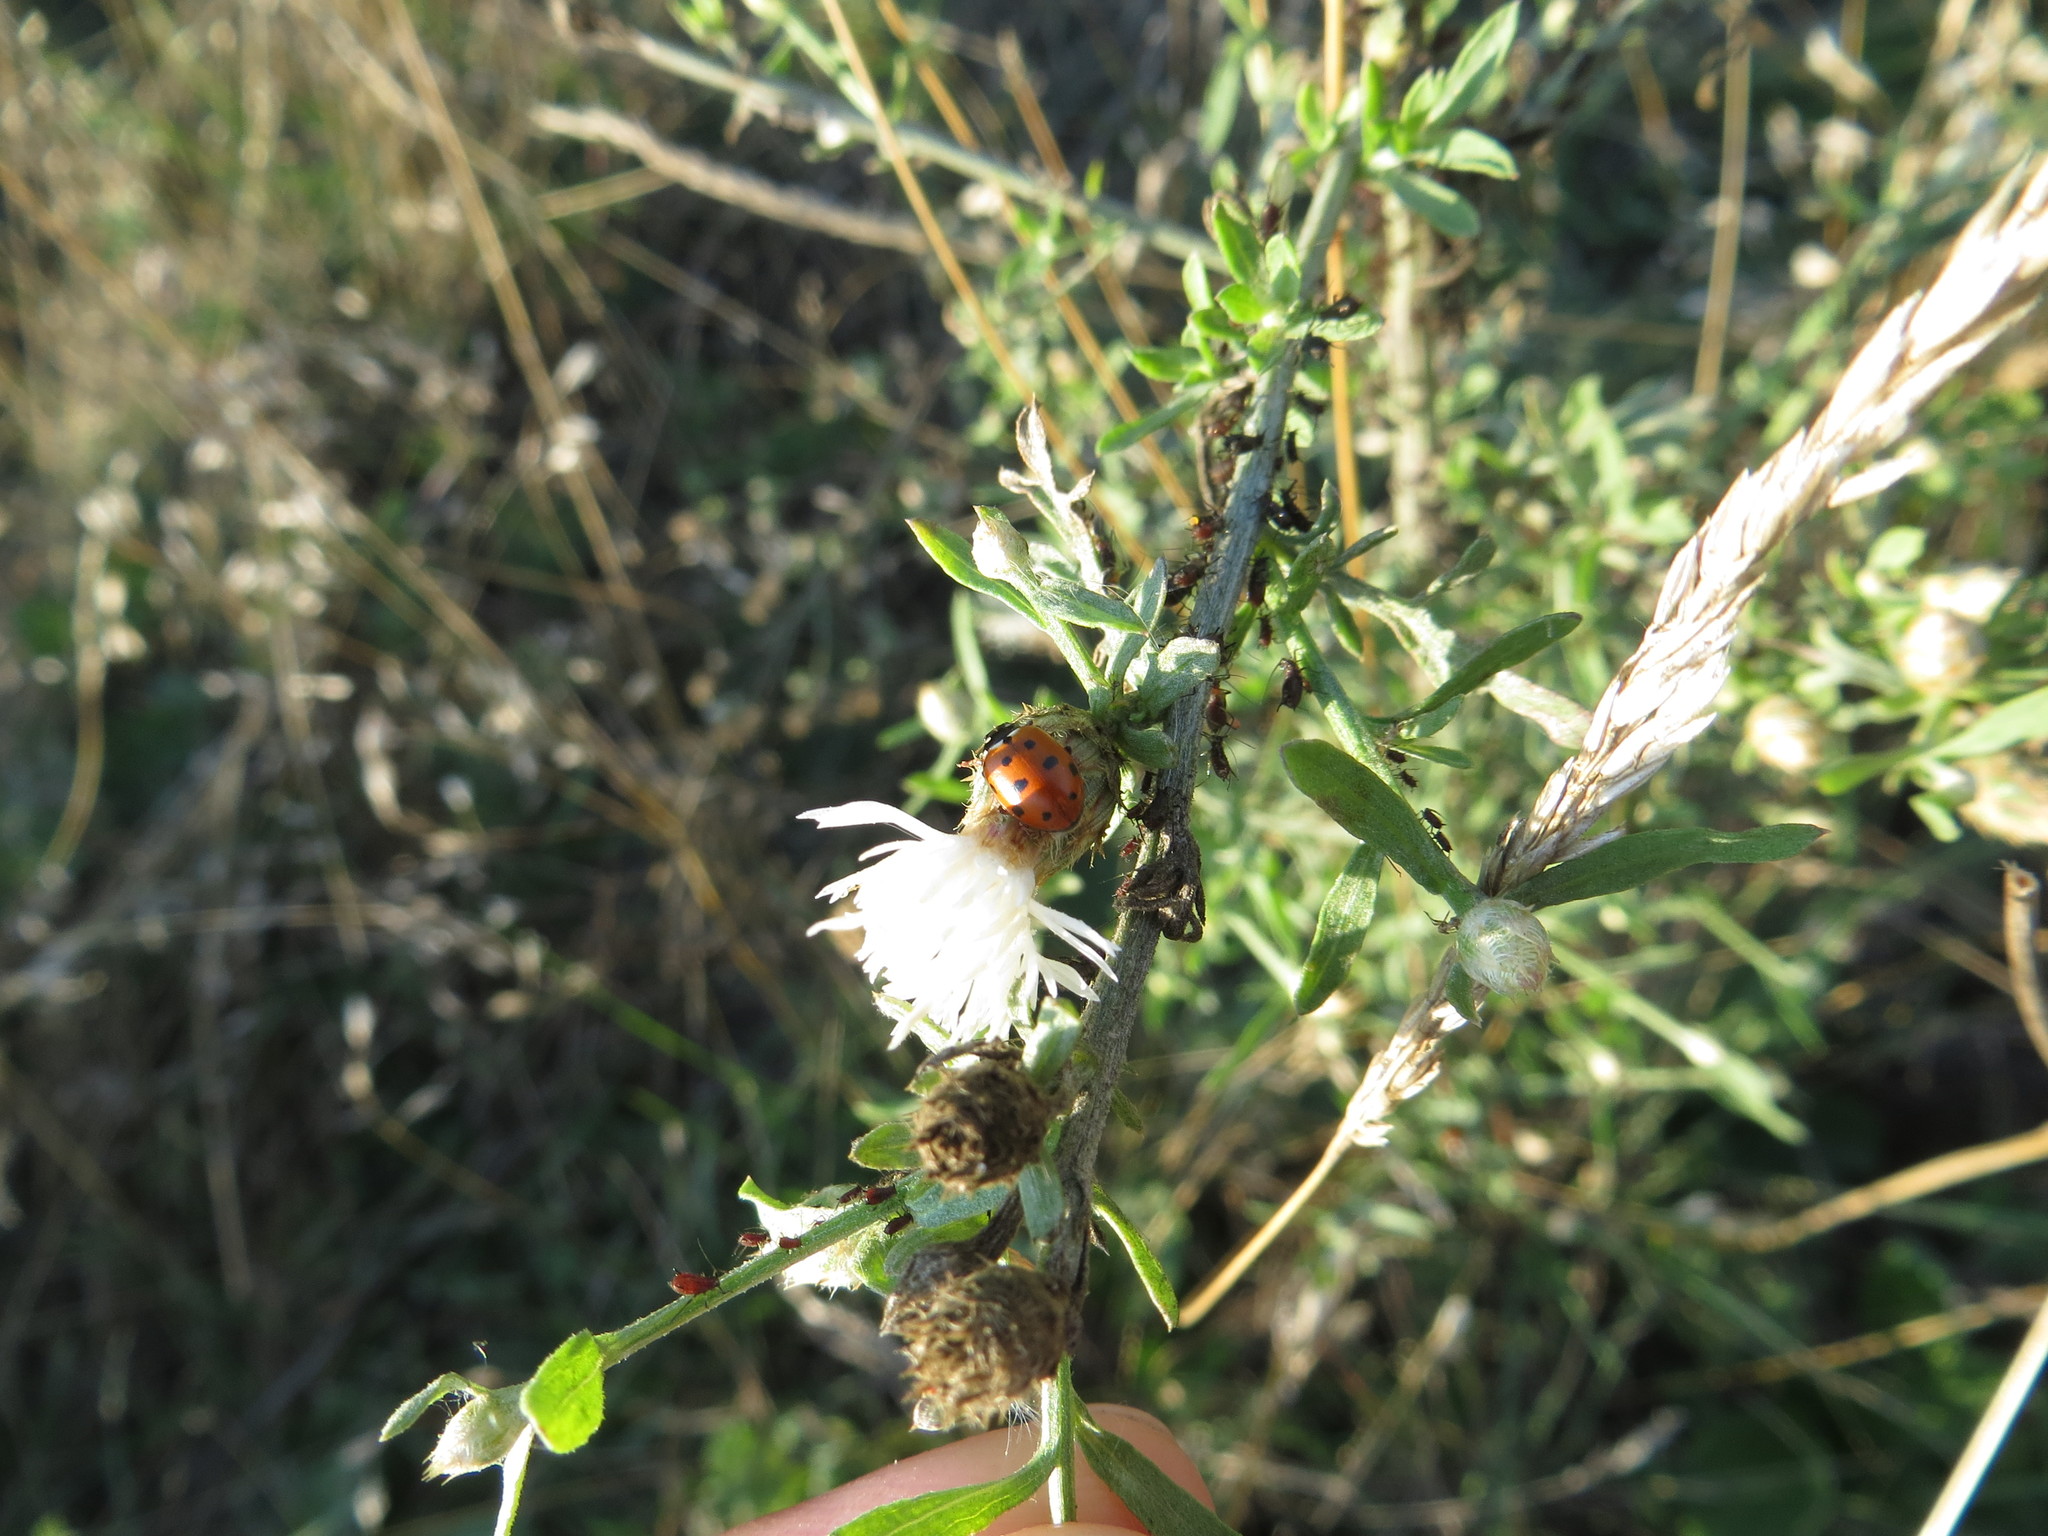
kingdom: Animalia
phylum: Arthropoda
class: Insecta
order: Coleoptera
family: Coccinellidae
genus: Hippodamia
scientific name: Hippodamia variegata
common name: Ladybird beetle
